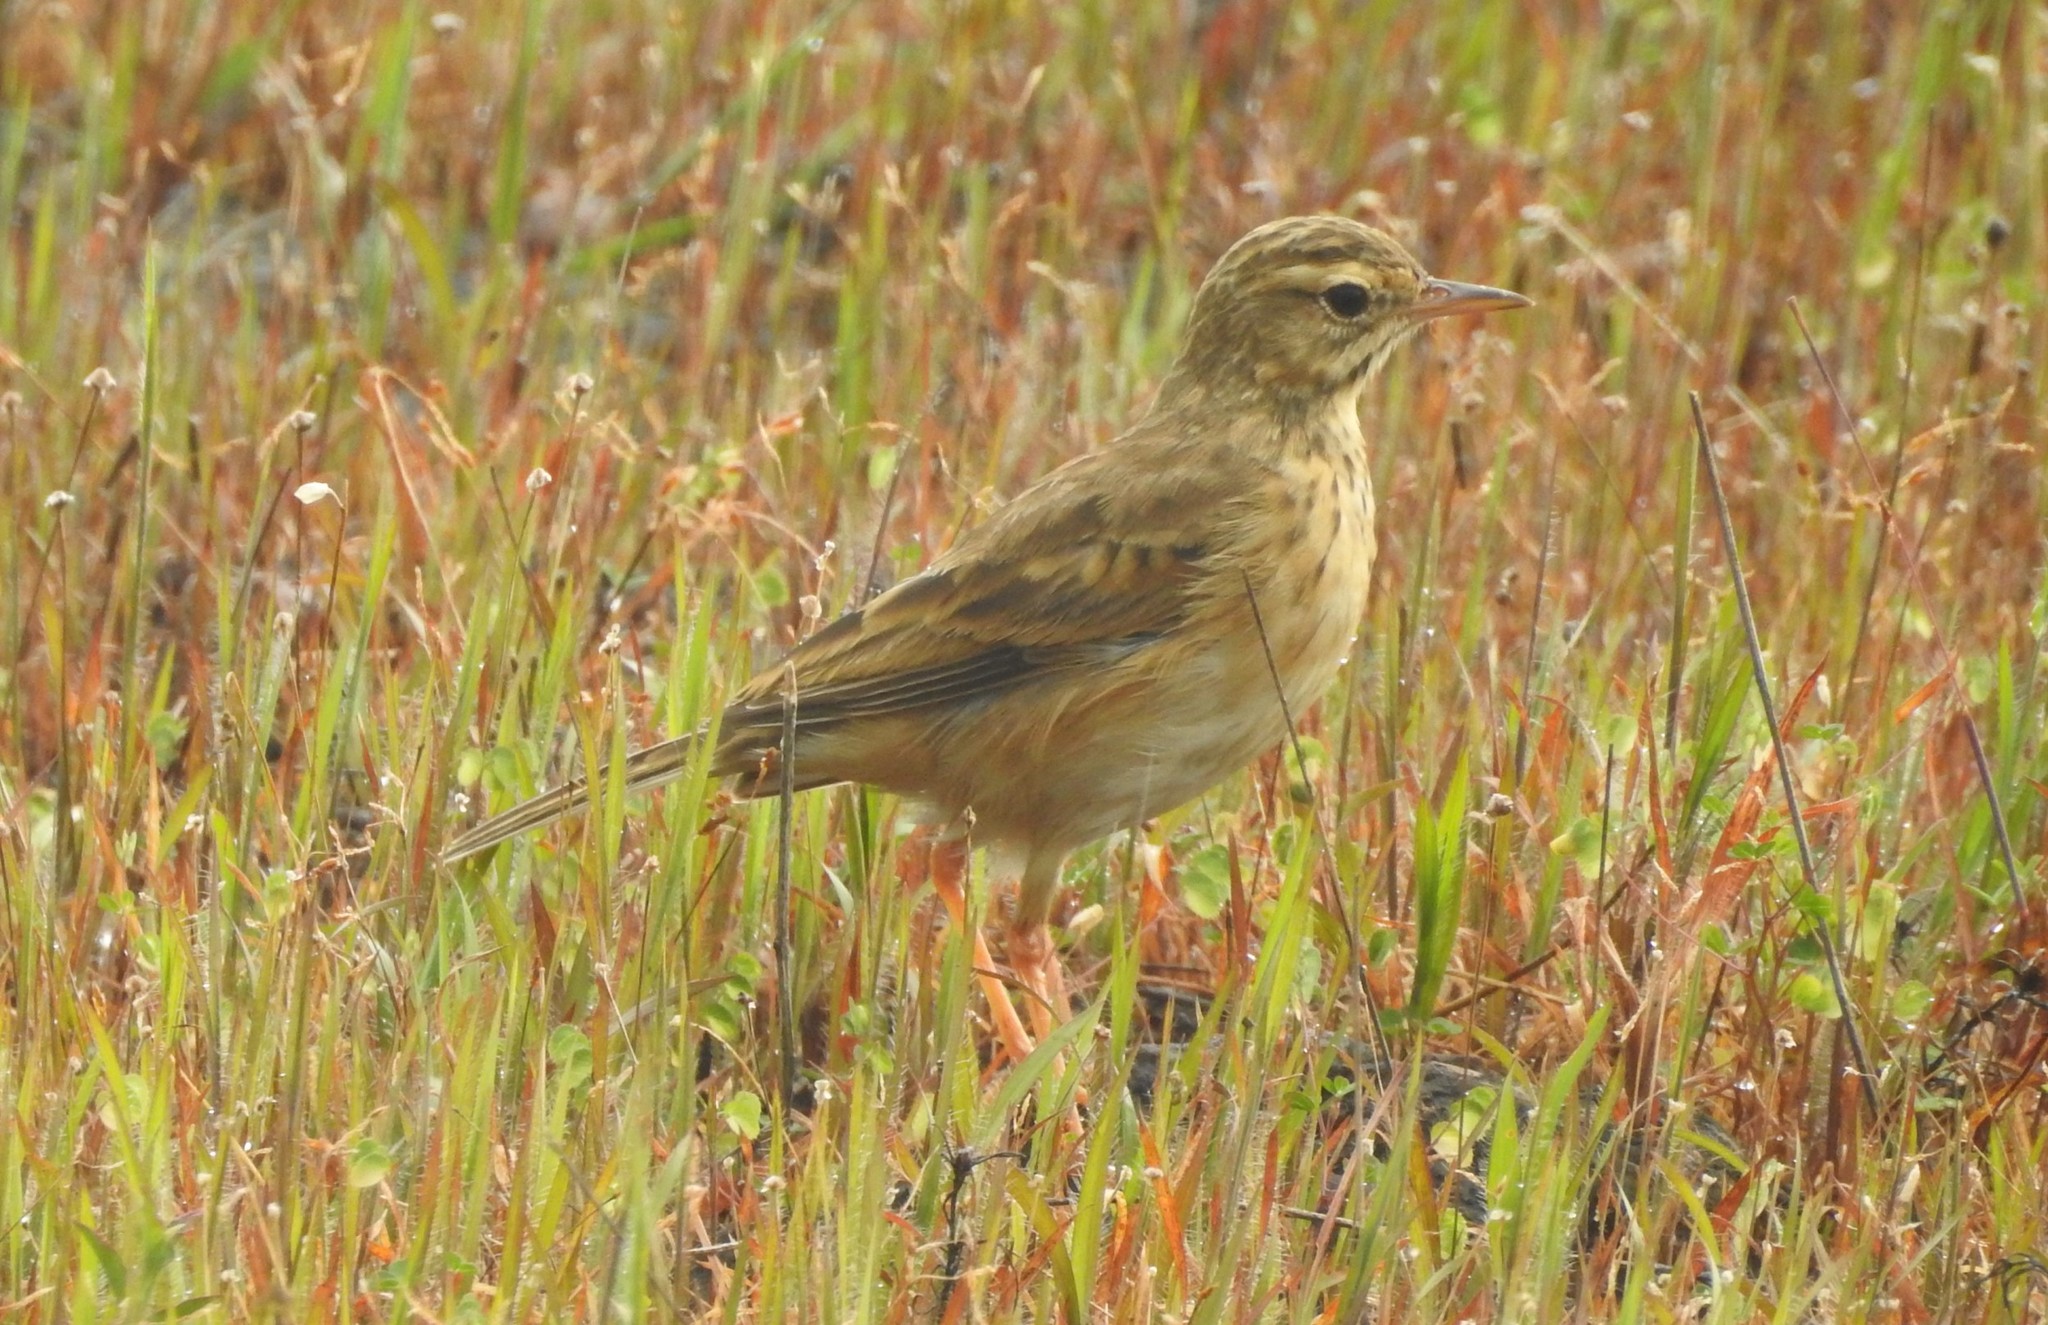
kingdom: Animalia
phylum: Chordata
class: Aves
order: Passeriformes
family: Motacillidae
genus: Anthus
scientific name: Anthus rufulus
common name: Paddyfield pipit
